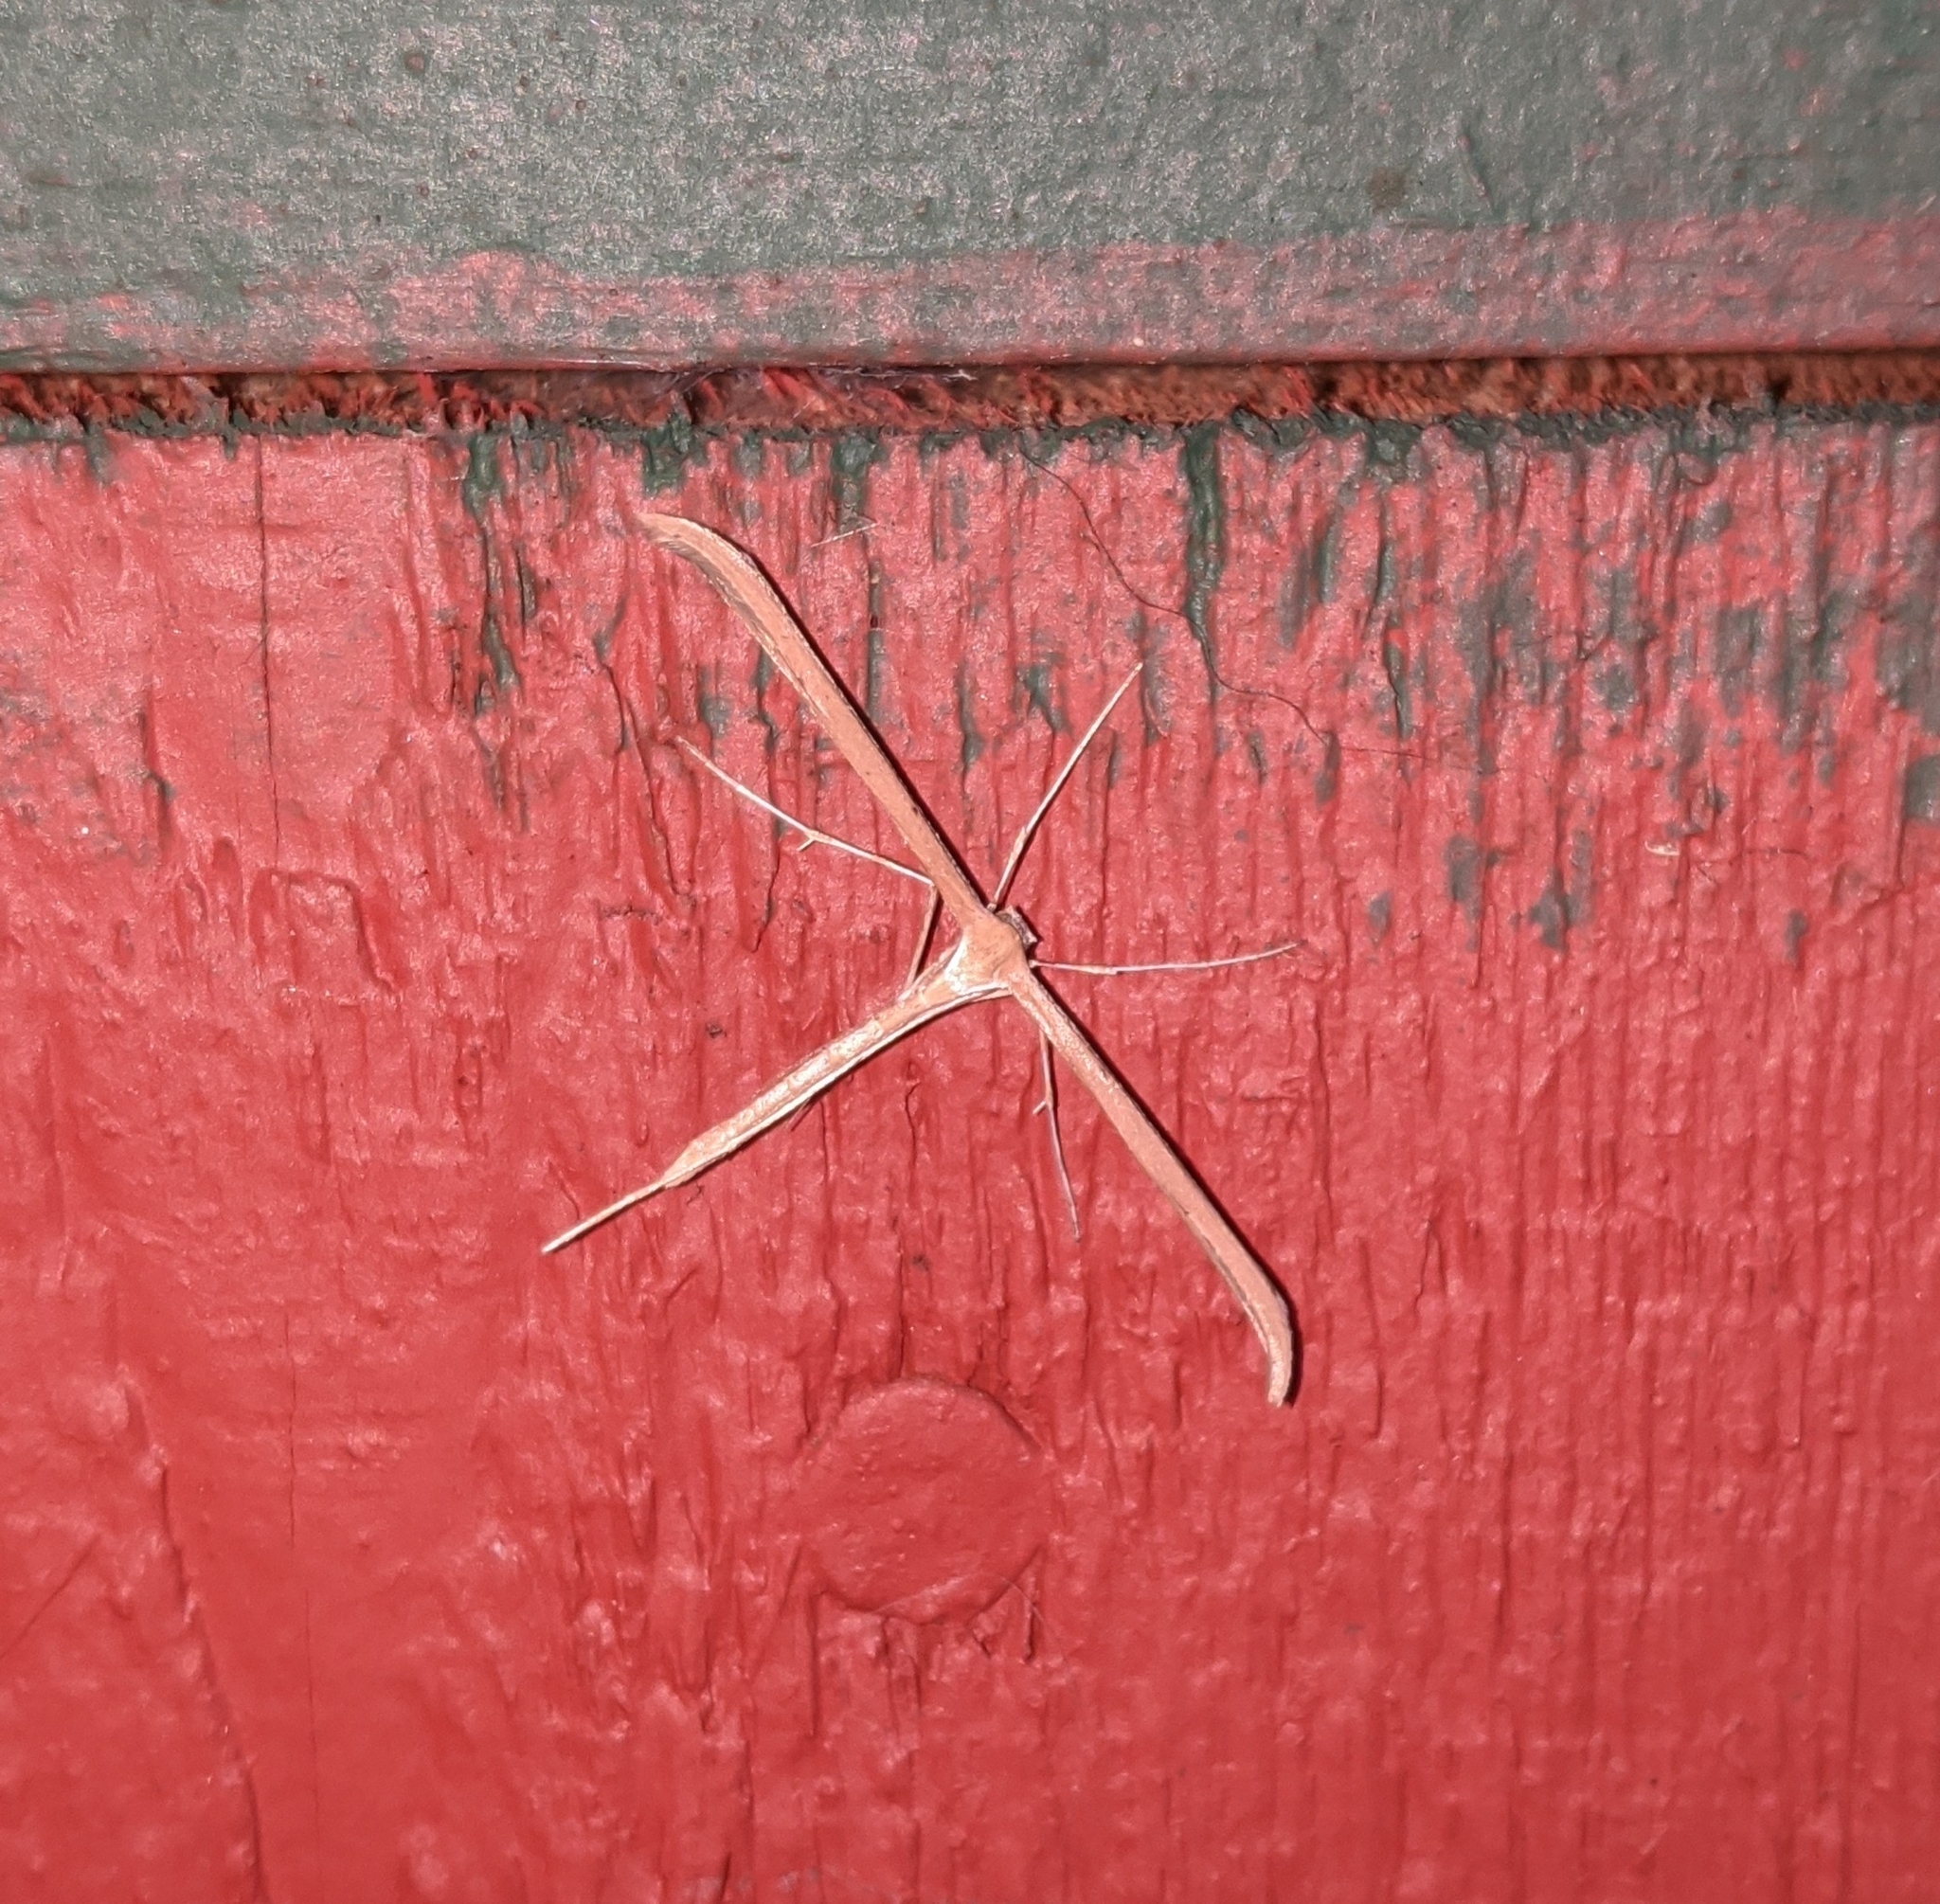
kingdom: Animalia
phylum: Arthropoda
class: Insecta
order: Lepidoptera
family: Pterophoridae
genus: Emmelina
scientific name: Emmelina monodactyla
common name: Common plume
